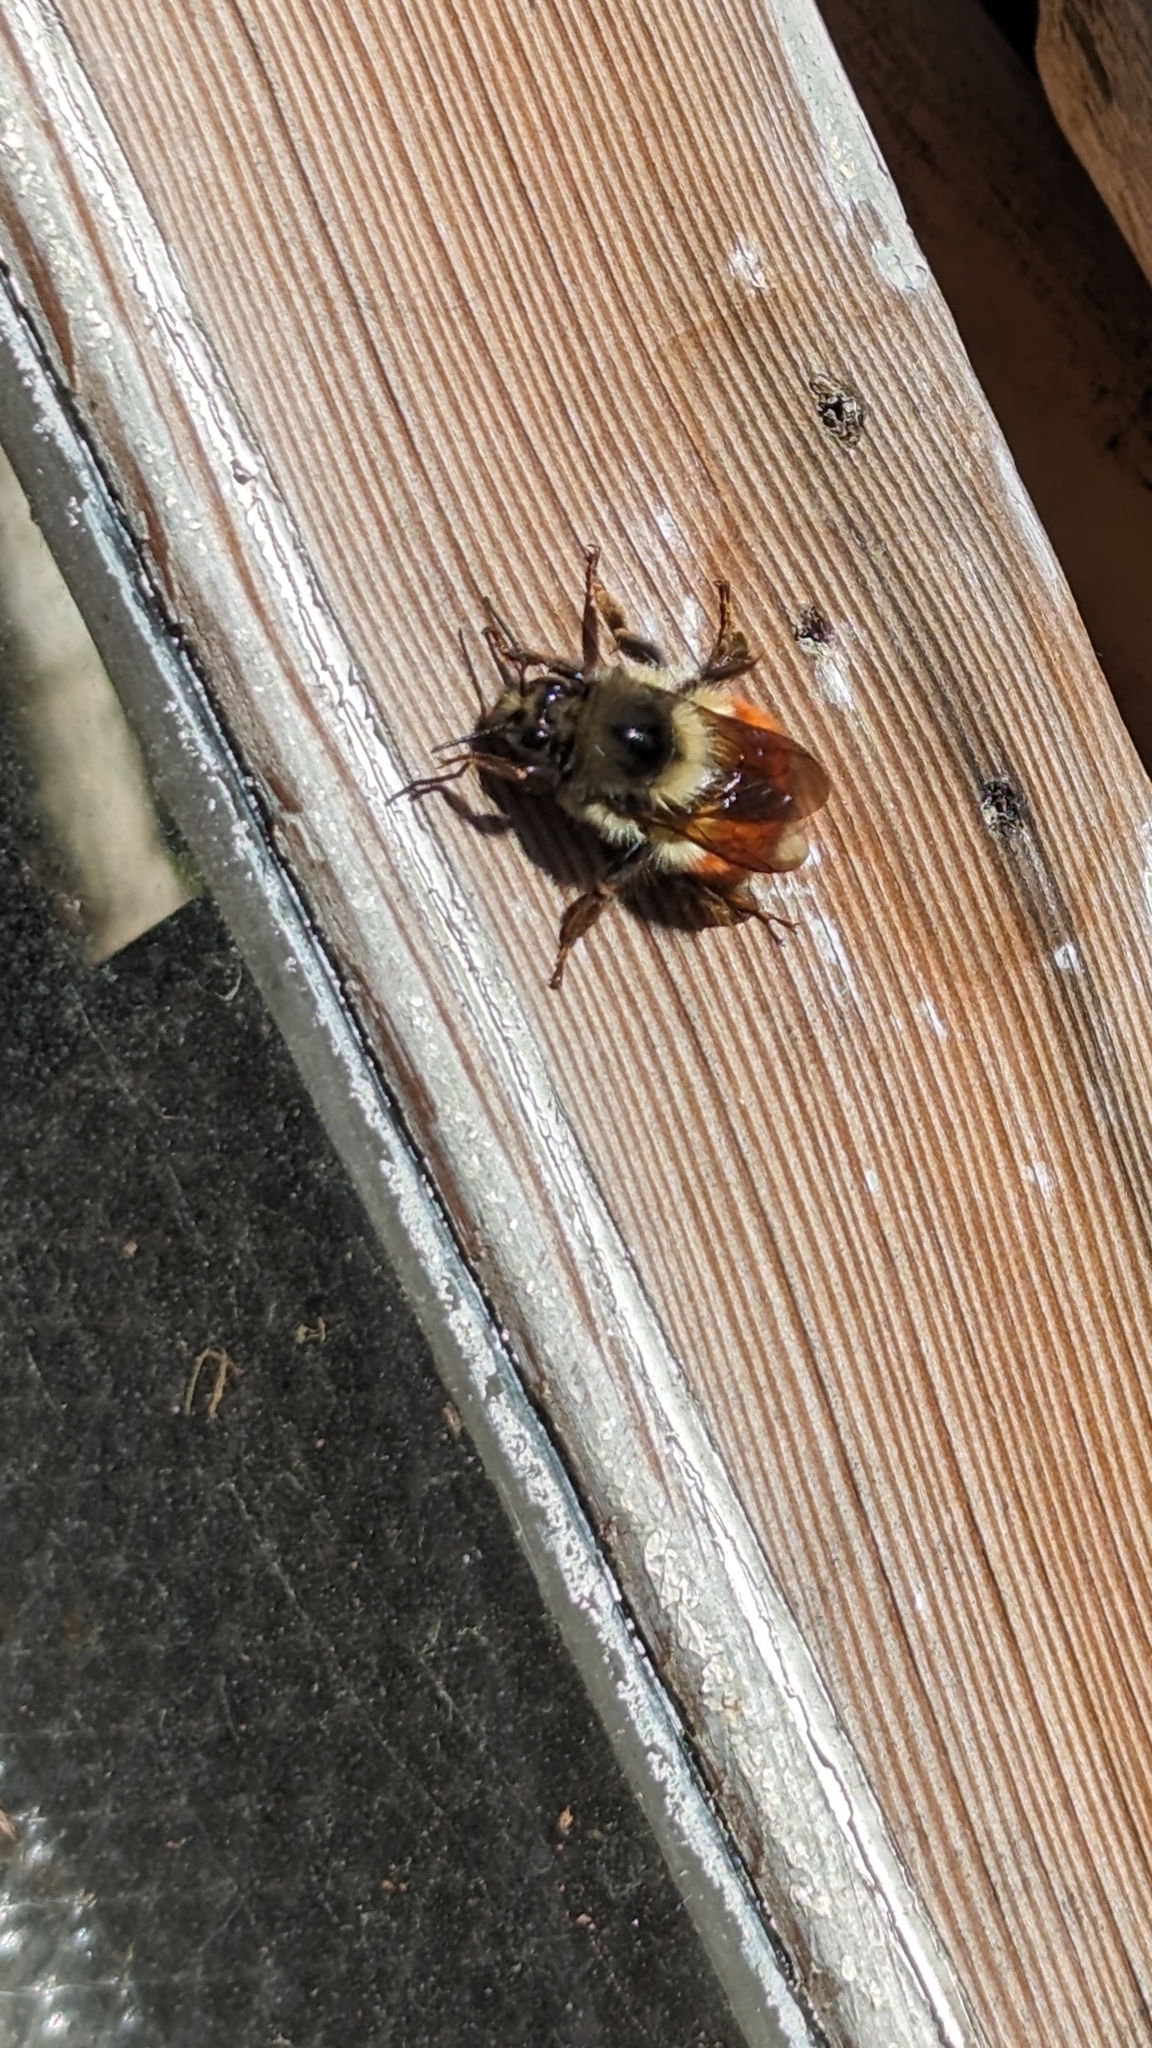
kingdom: Animalia
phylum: Arthropoda
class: Insecta
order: Hymenoptera
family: Apidae
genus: Bombus
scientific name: Bombus melanopygus
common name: Black tail bumble bee
